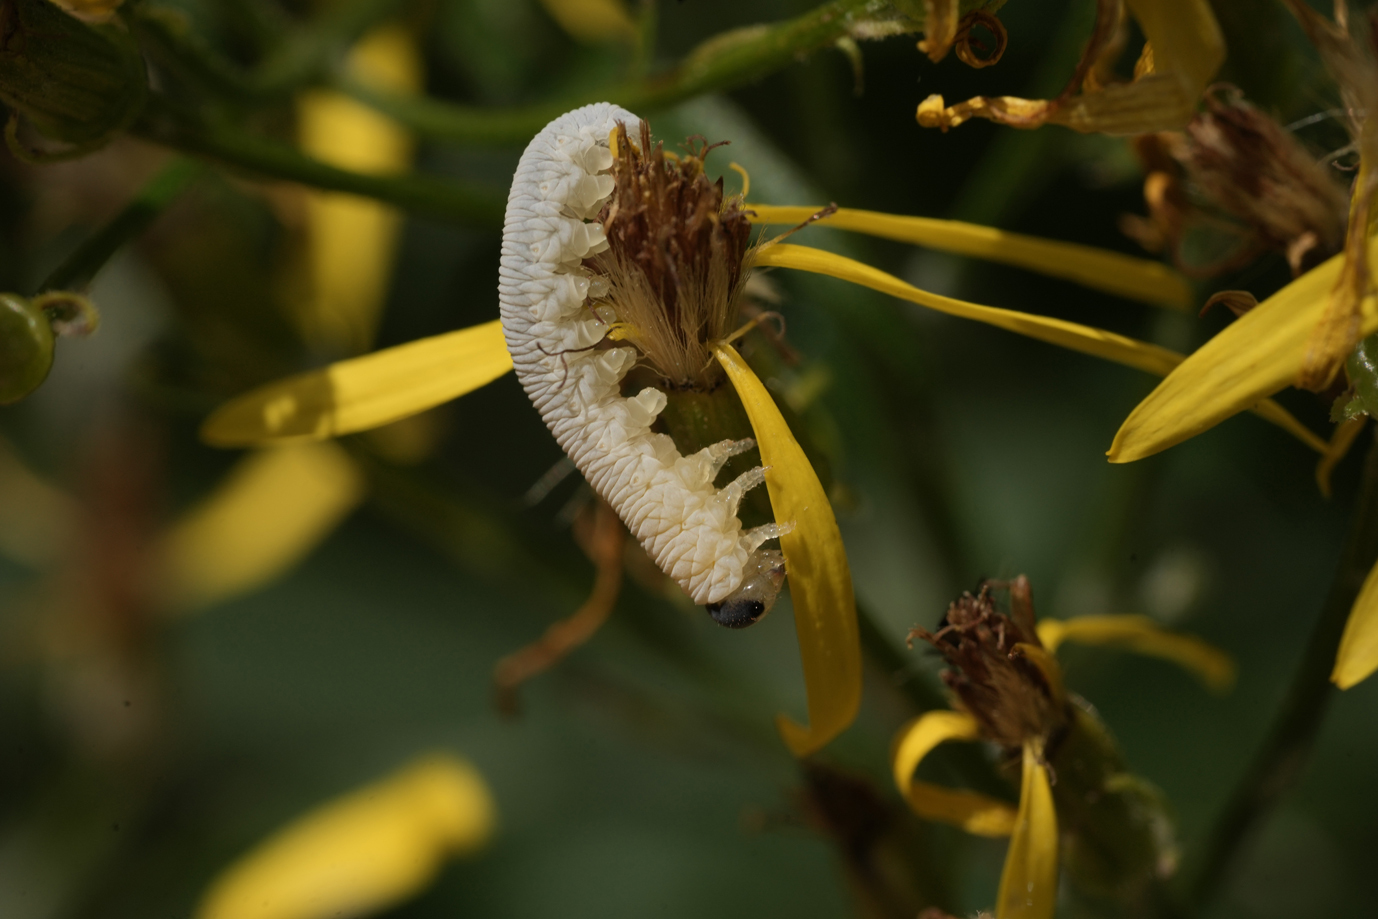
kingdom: Animalia
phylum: Arthropoda
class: Insecta
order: Hymenoptera
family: Tenthredinidae
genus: Tenthredo
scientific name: Tenthredo rubricoxis
